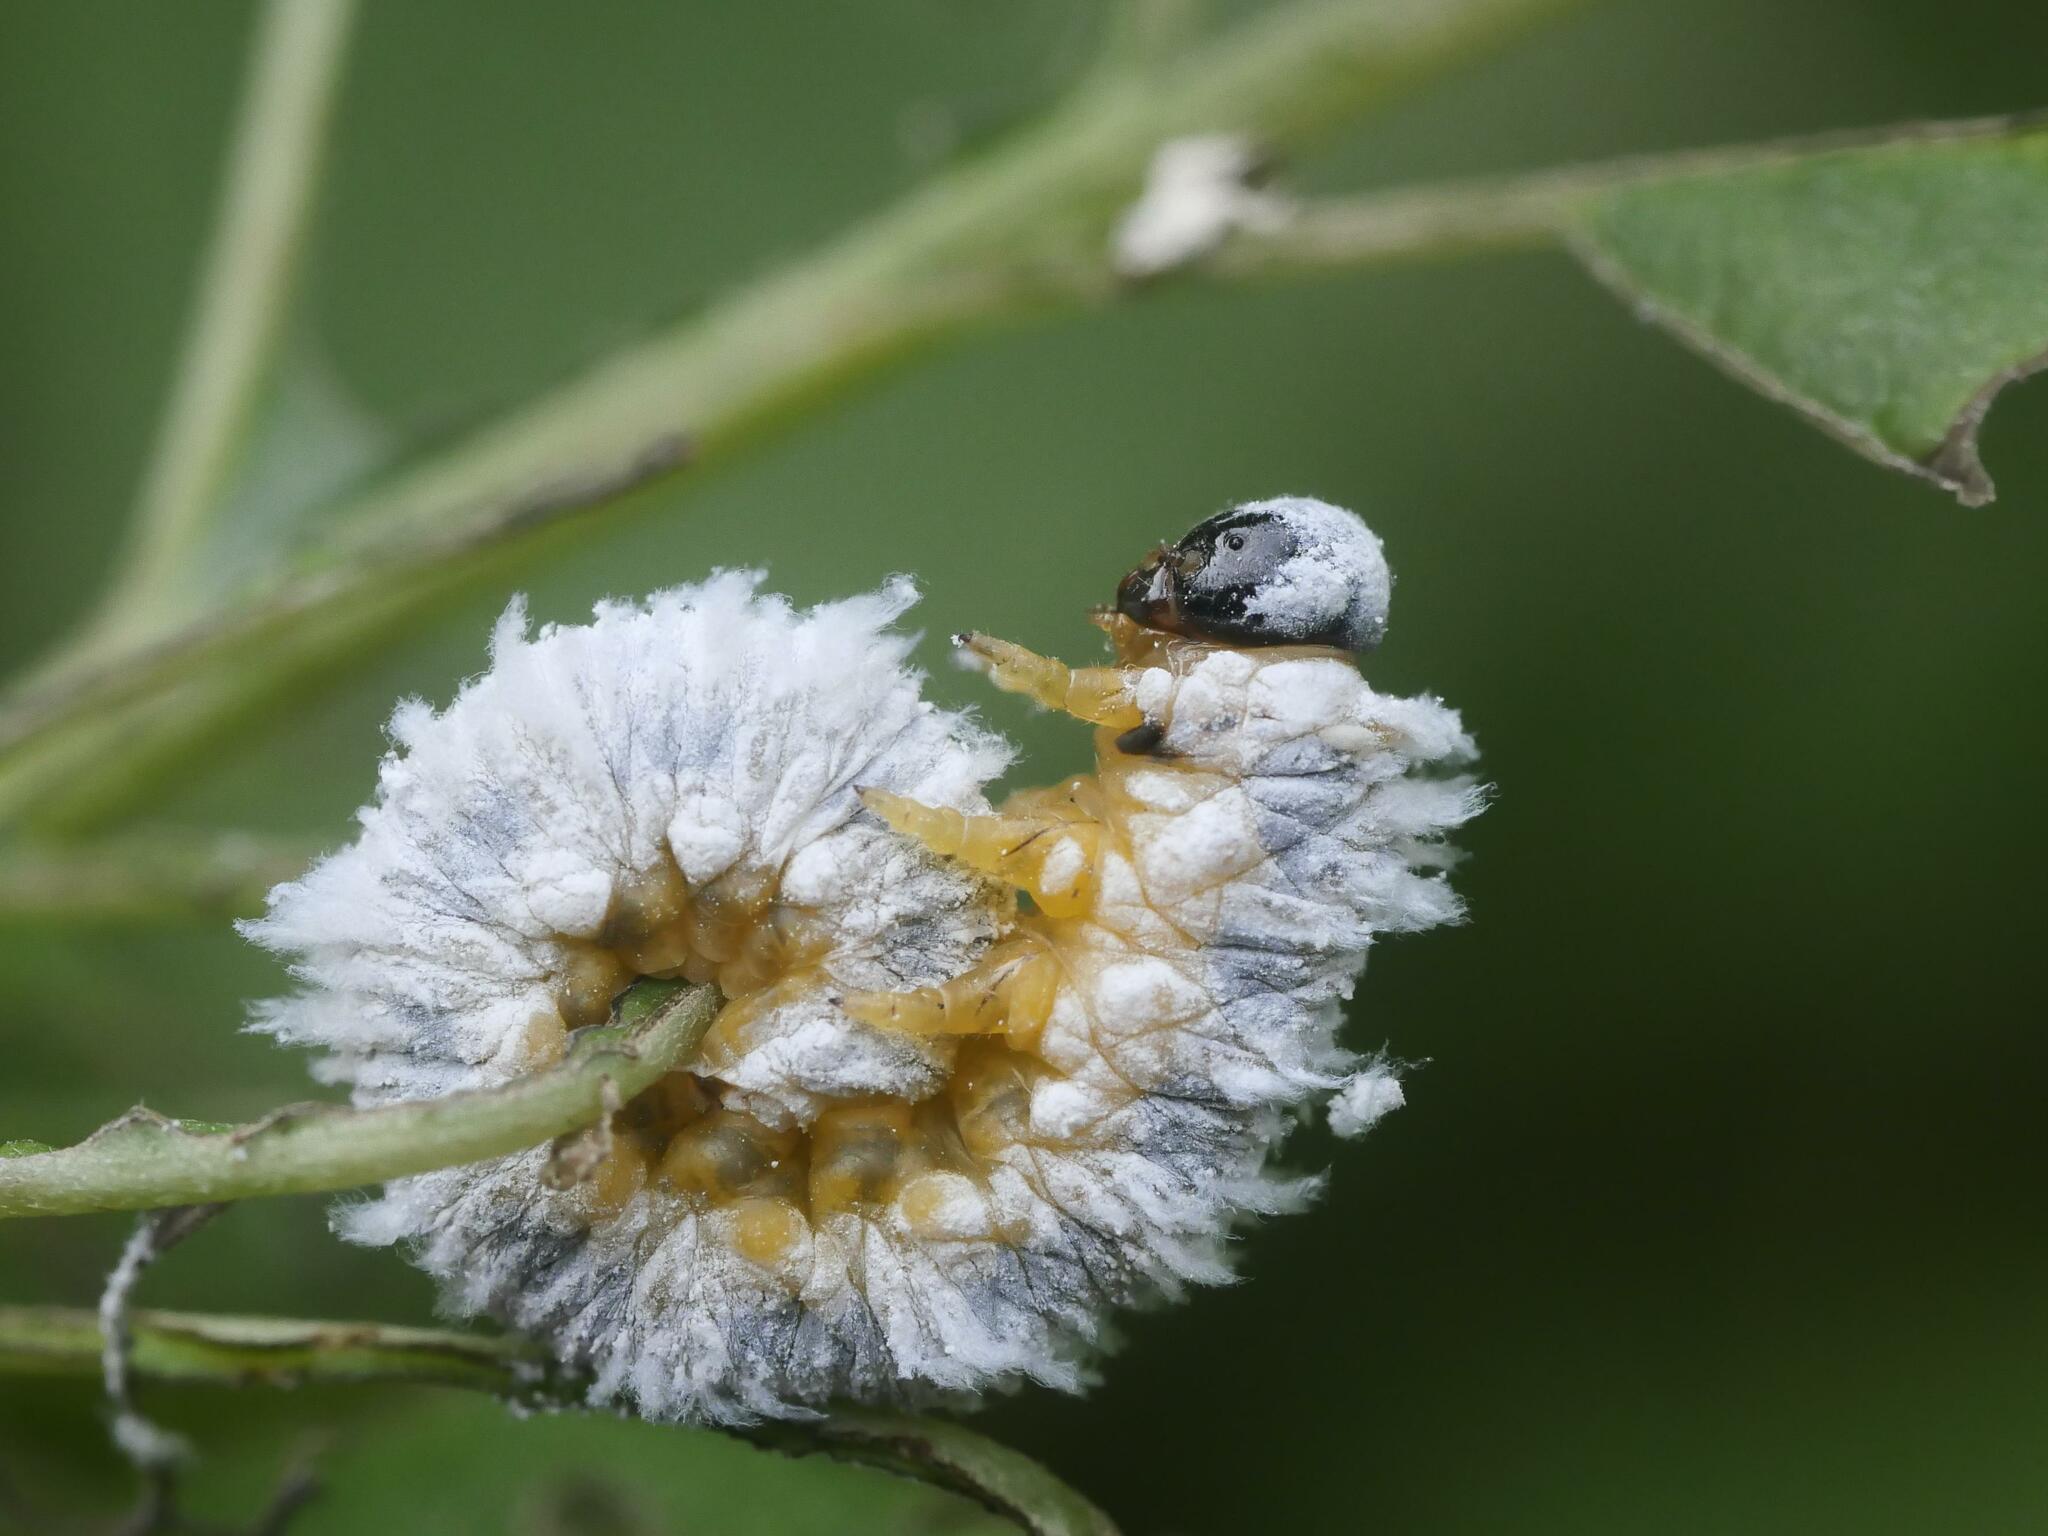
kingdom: Animalia
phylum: Arthropoda
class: Insecta
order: Hymenoptera
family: Tenthredinidae
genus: Macremphytus
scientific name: Macremphytus testaceus
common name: Dogwood sawfly
